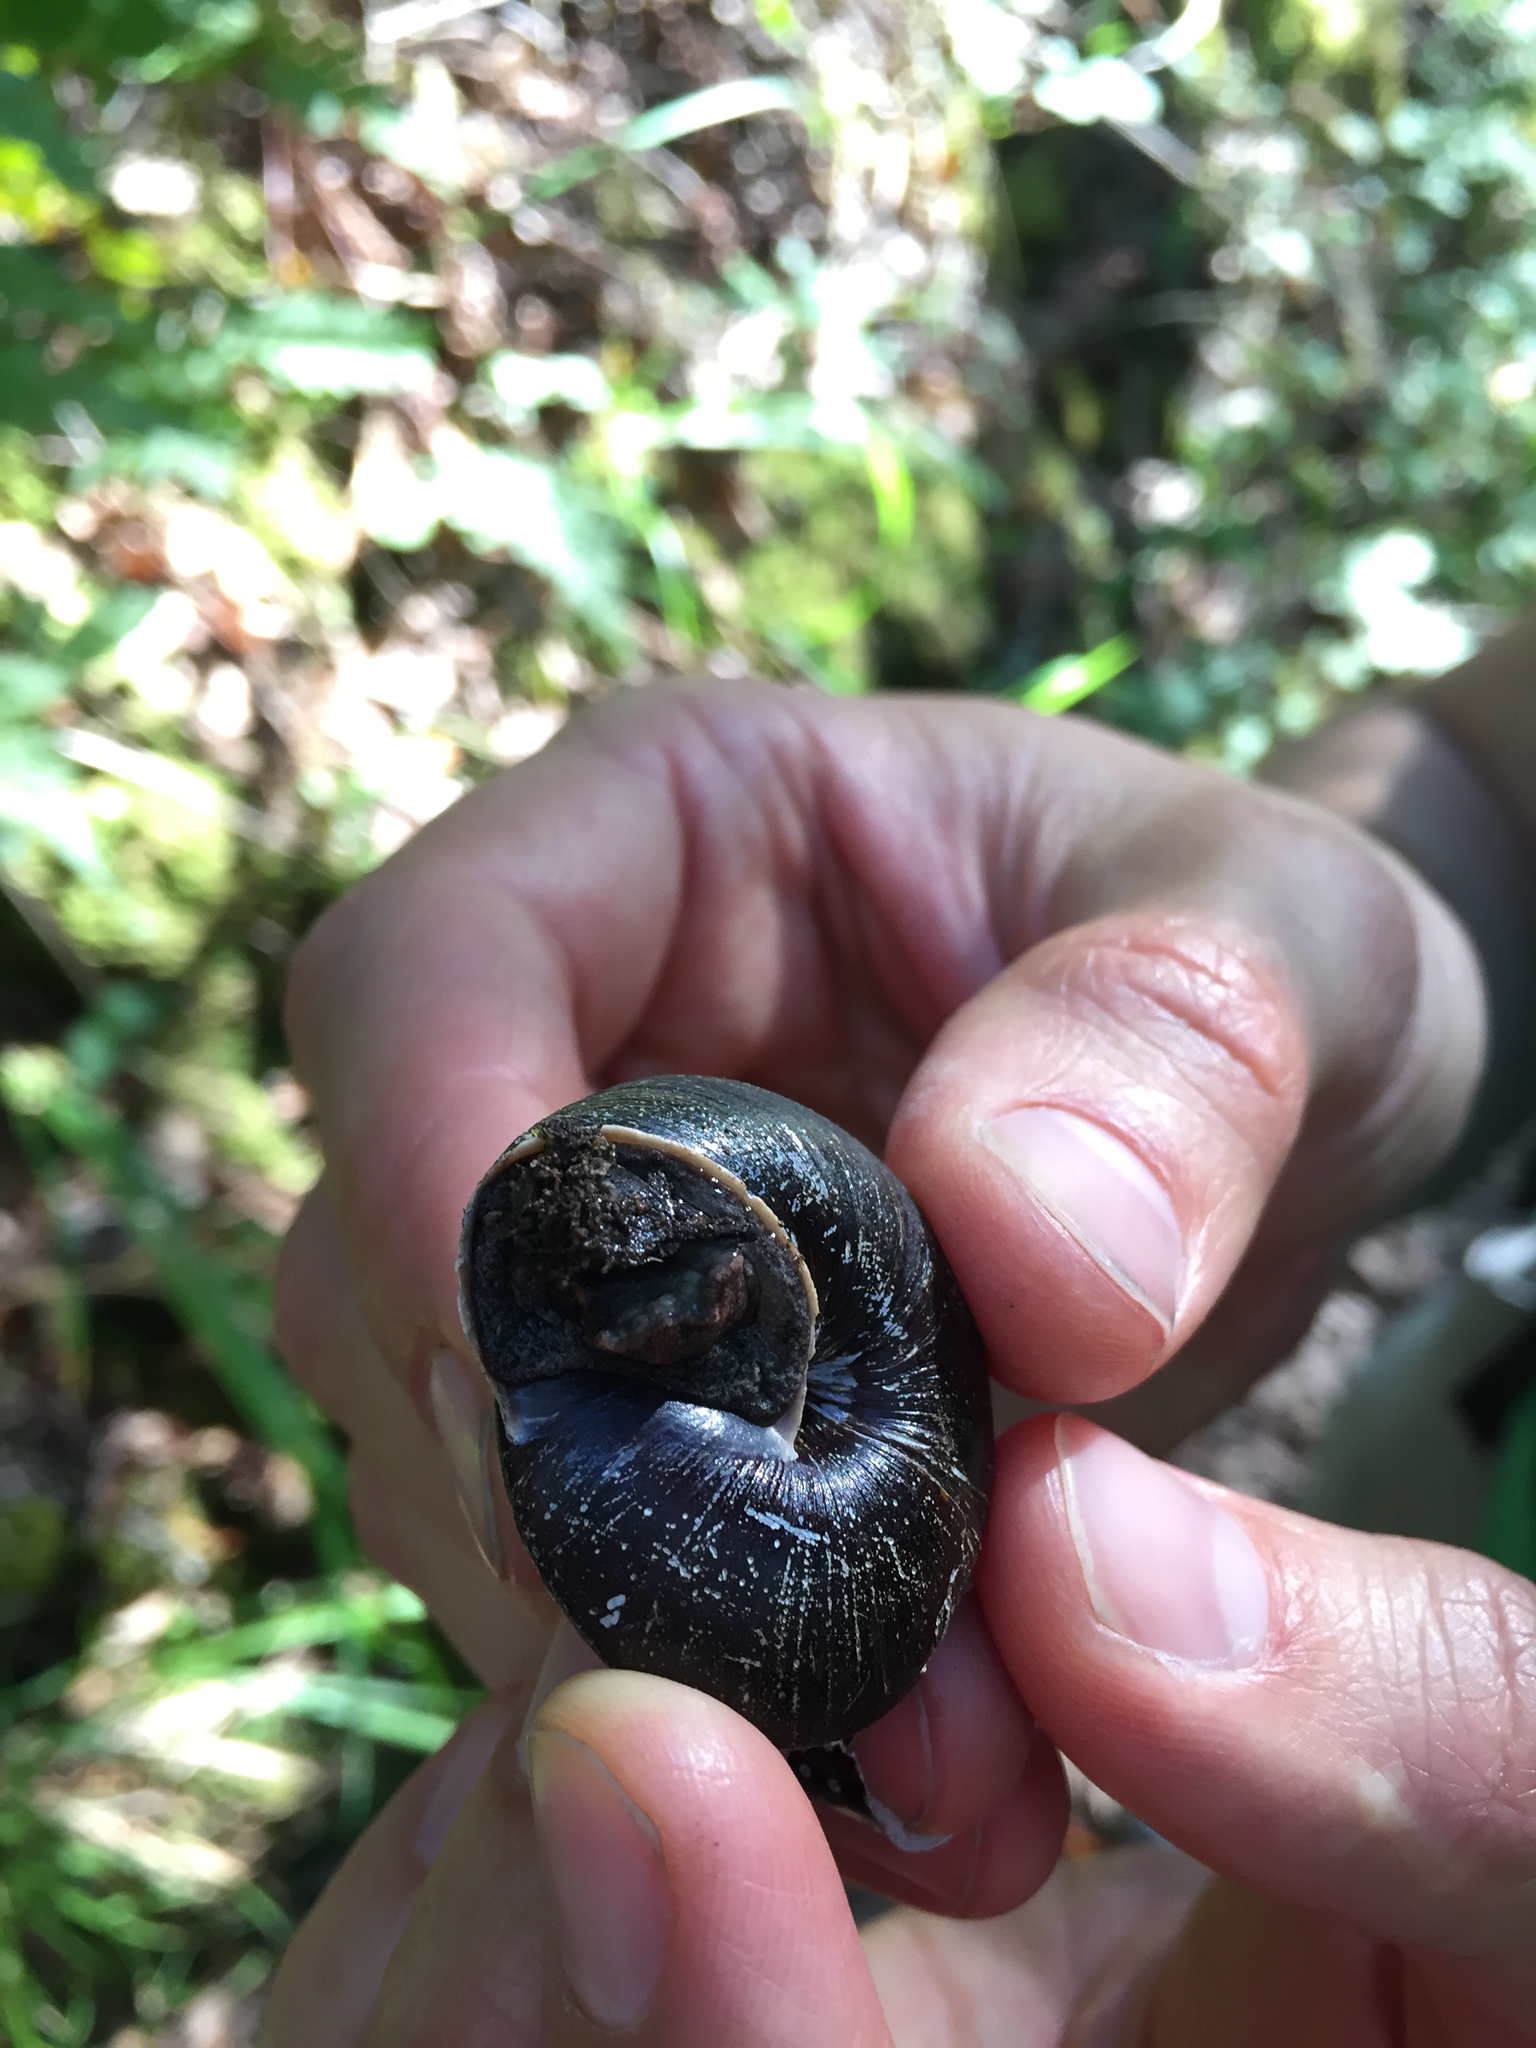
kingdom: Animalia
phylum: Mollusca
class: Gastropoda
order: Stylommatophora
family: Xanthonychidae
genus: Monadenia
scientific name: Monadenia infumata
